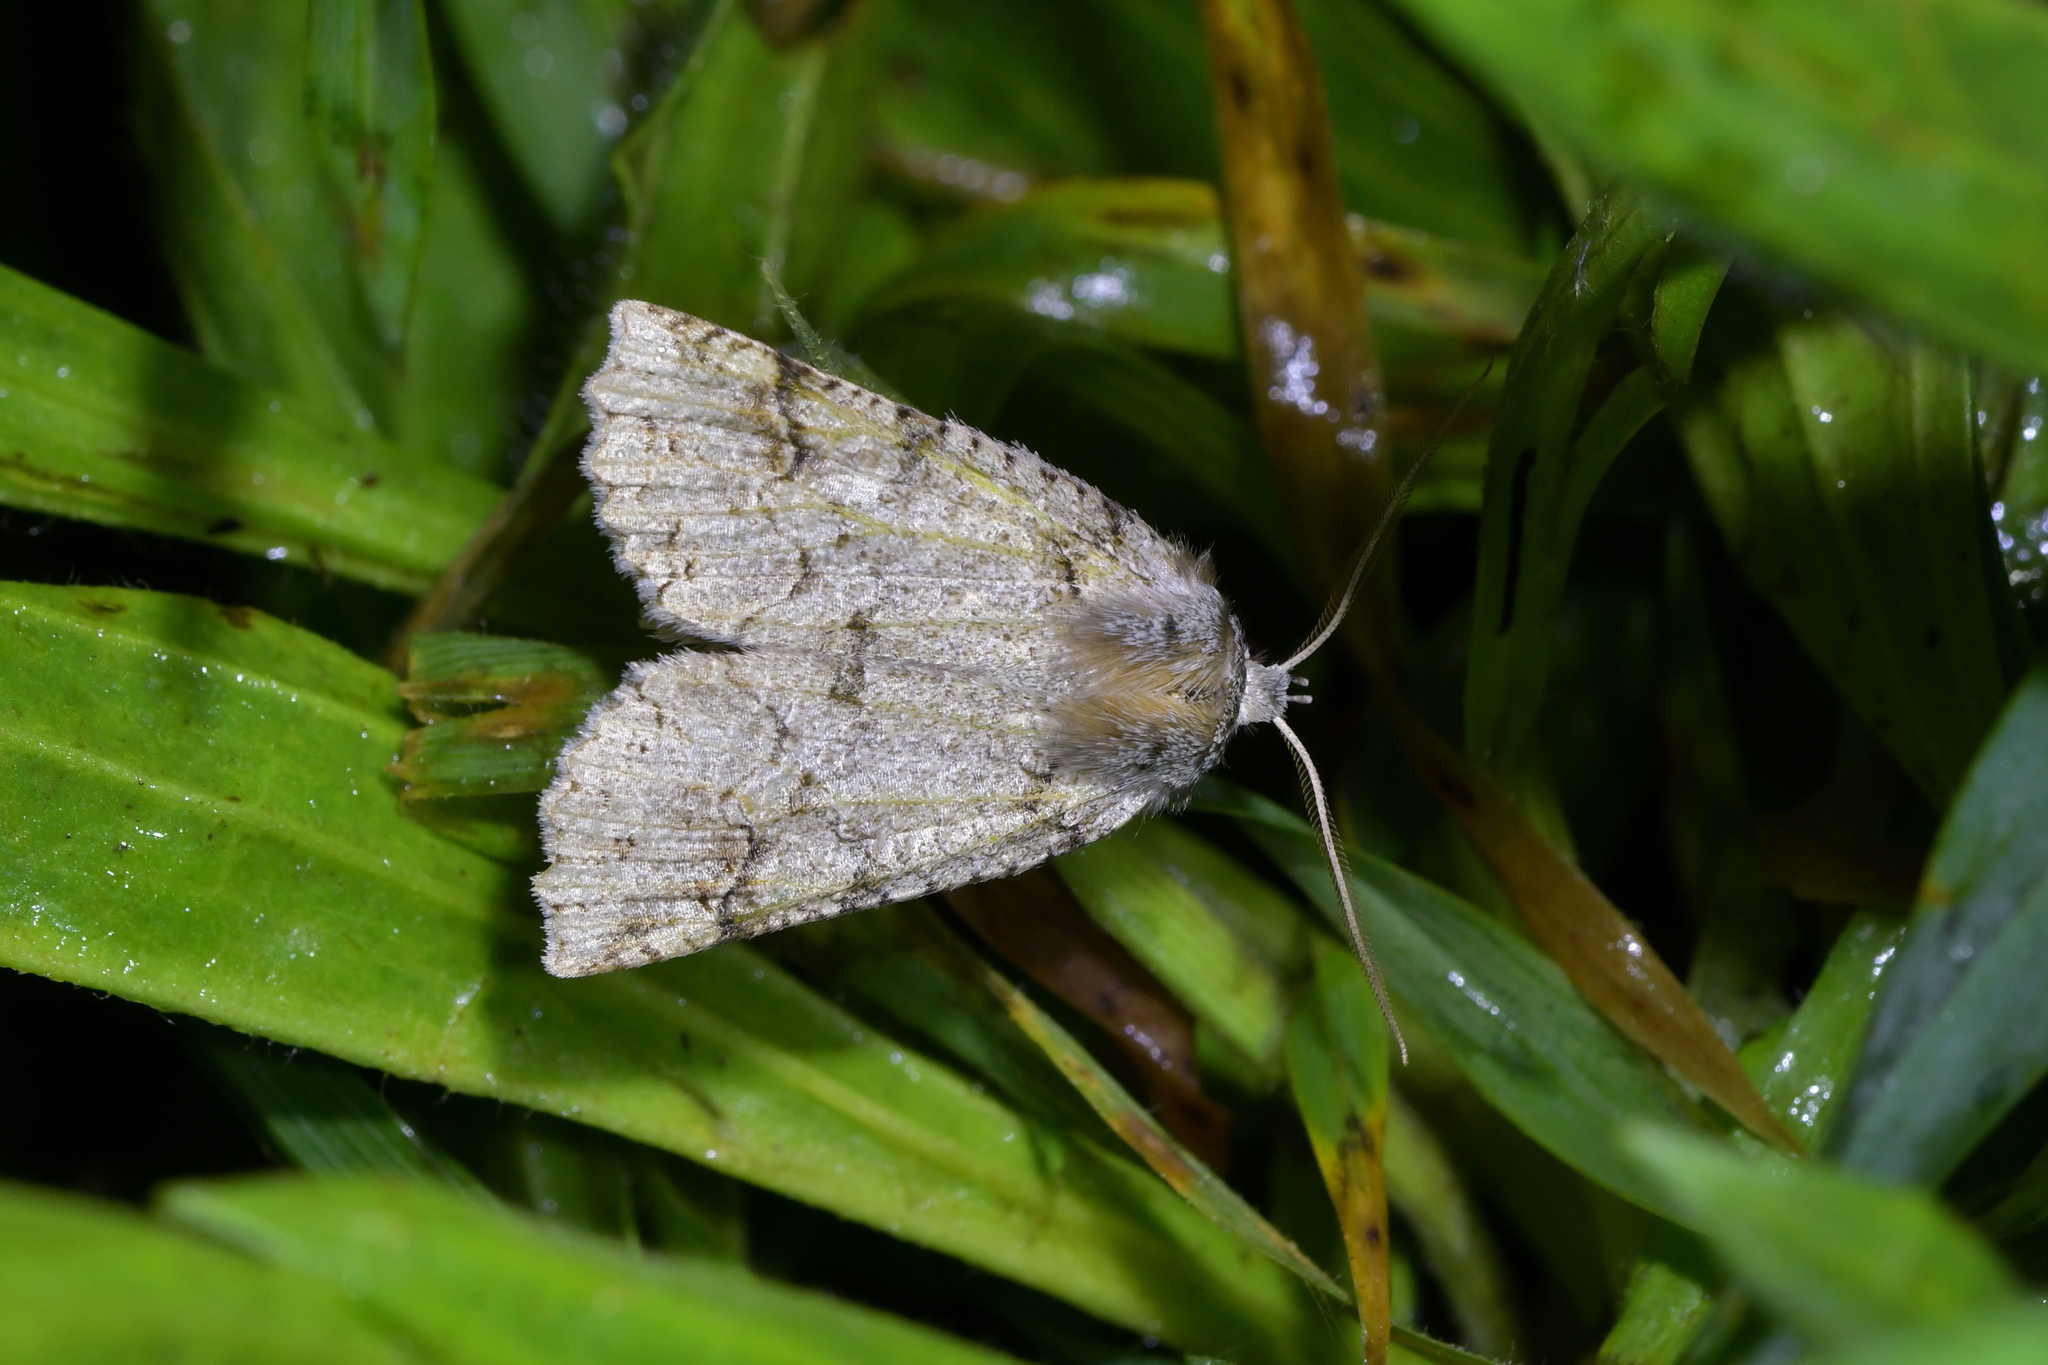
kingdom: Animalia
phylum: Arthropoda
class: Insecta
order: Lepidoptera
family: Geometridae
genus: Declana
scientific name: Declana floccosa
